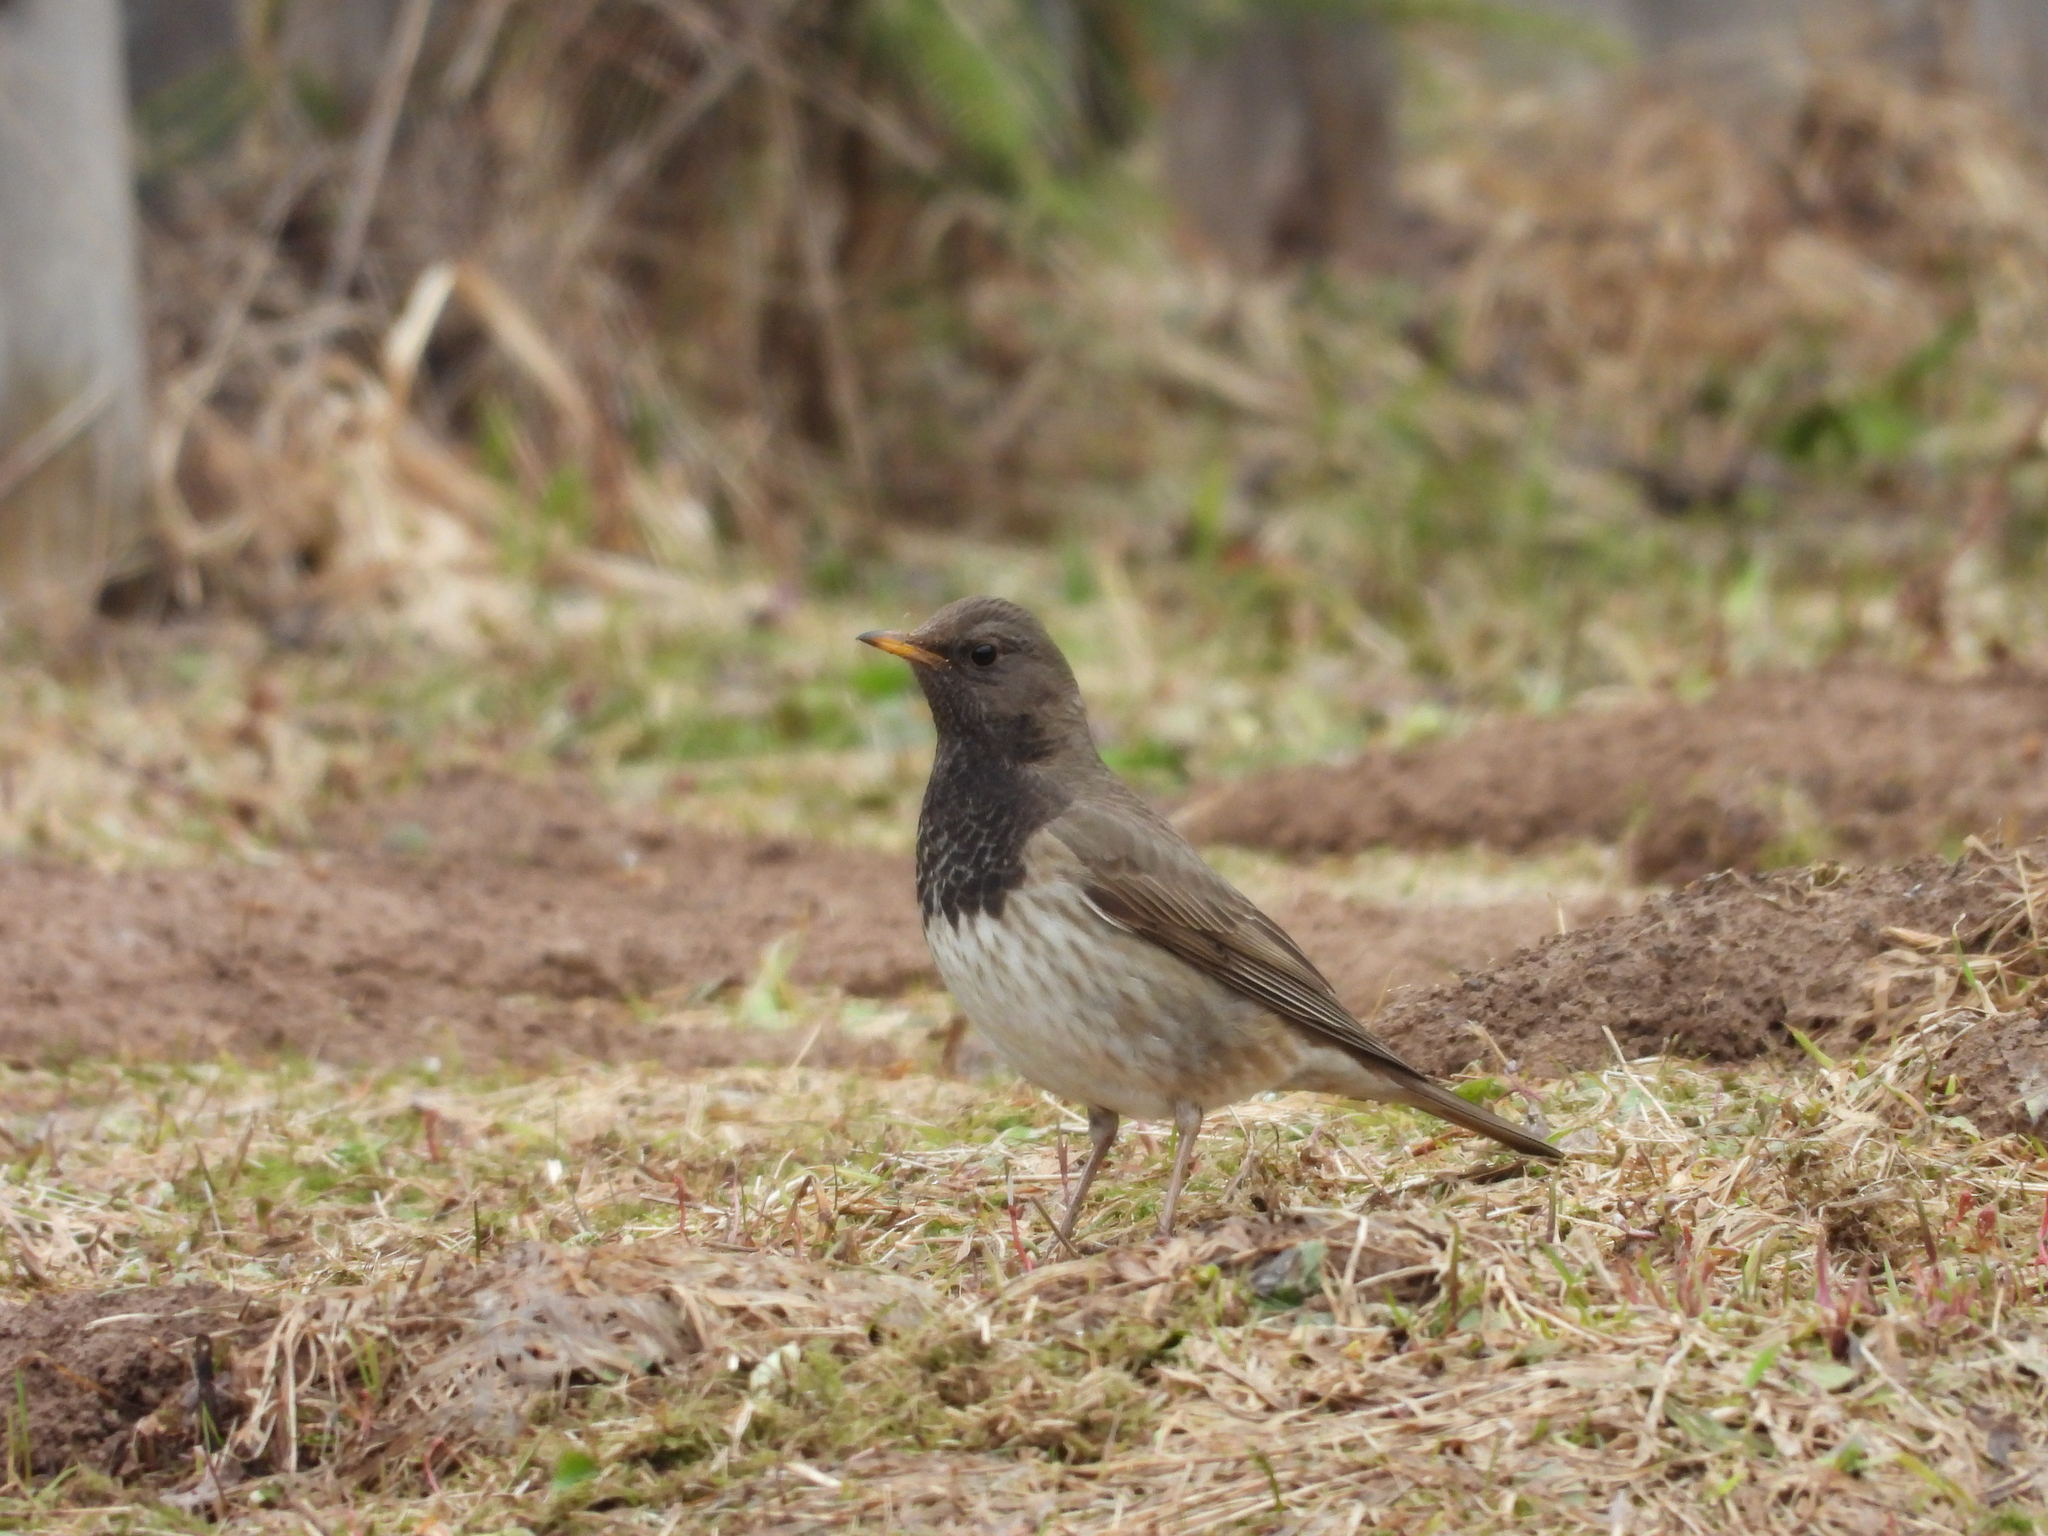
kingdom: Animalia
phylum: Chordata
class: Aves
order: Passeriformes
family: Turdidae
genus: Turdus
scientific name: Turdus atrogularis
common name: Black-throated thrush
